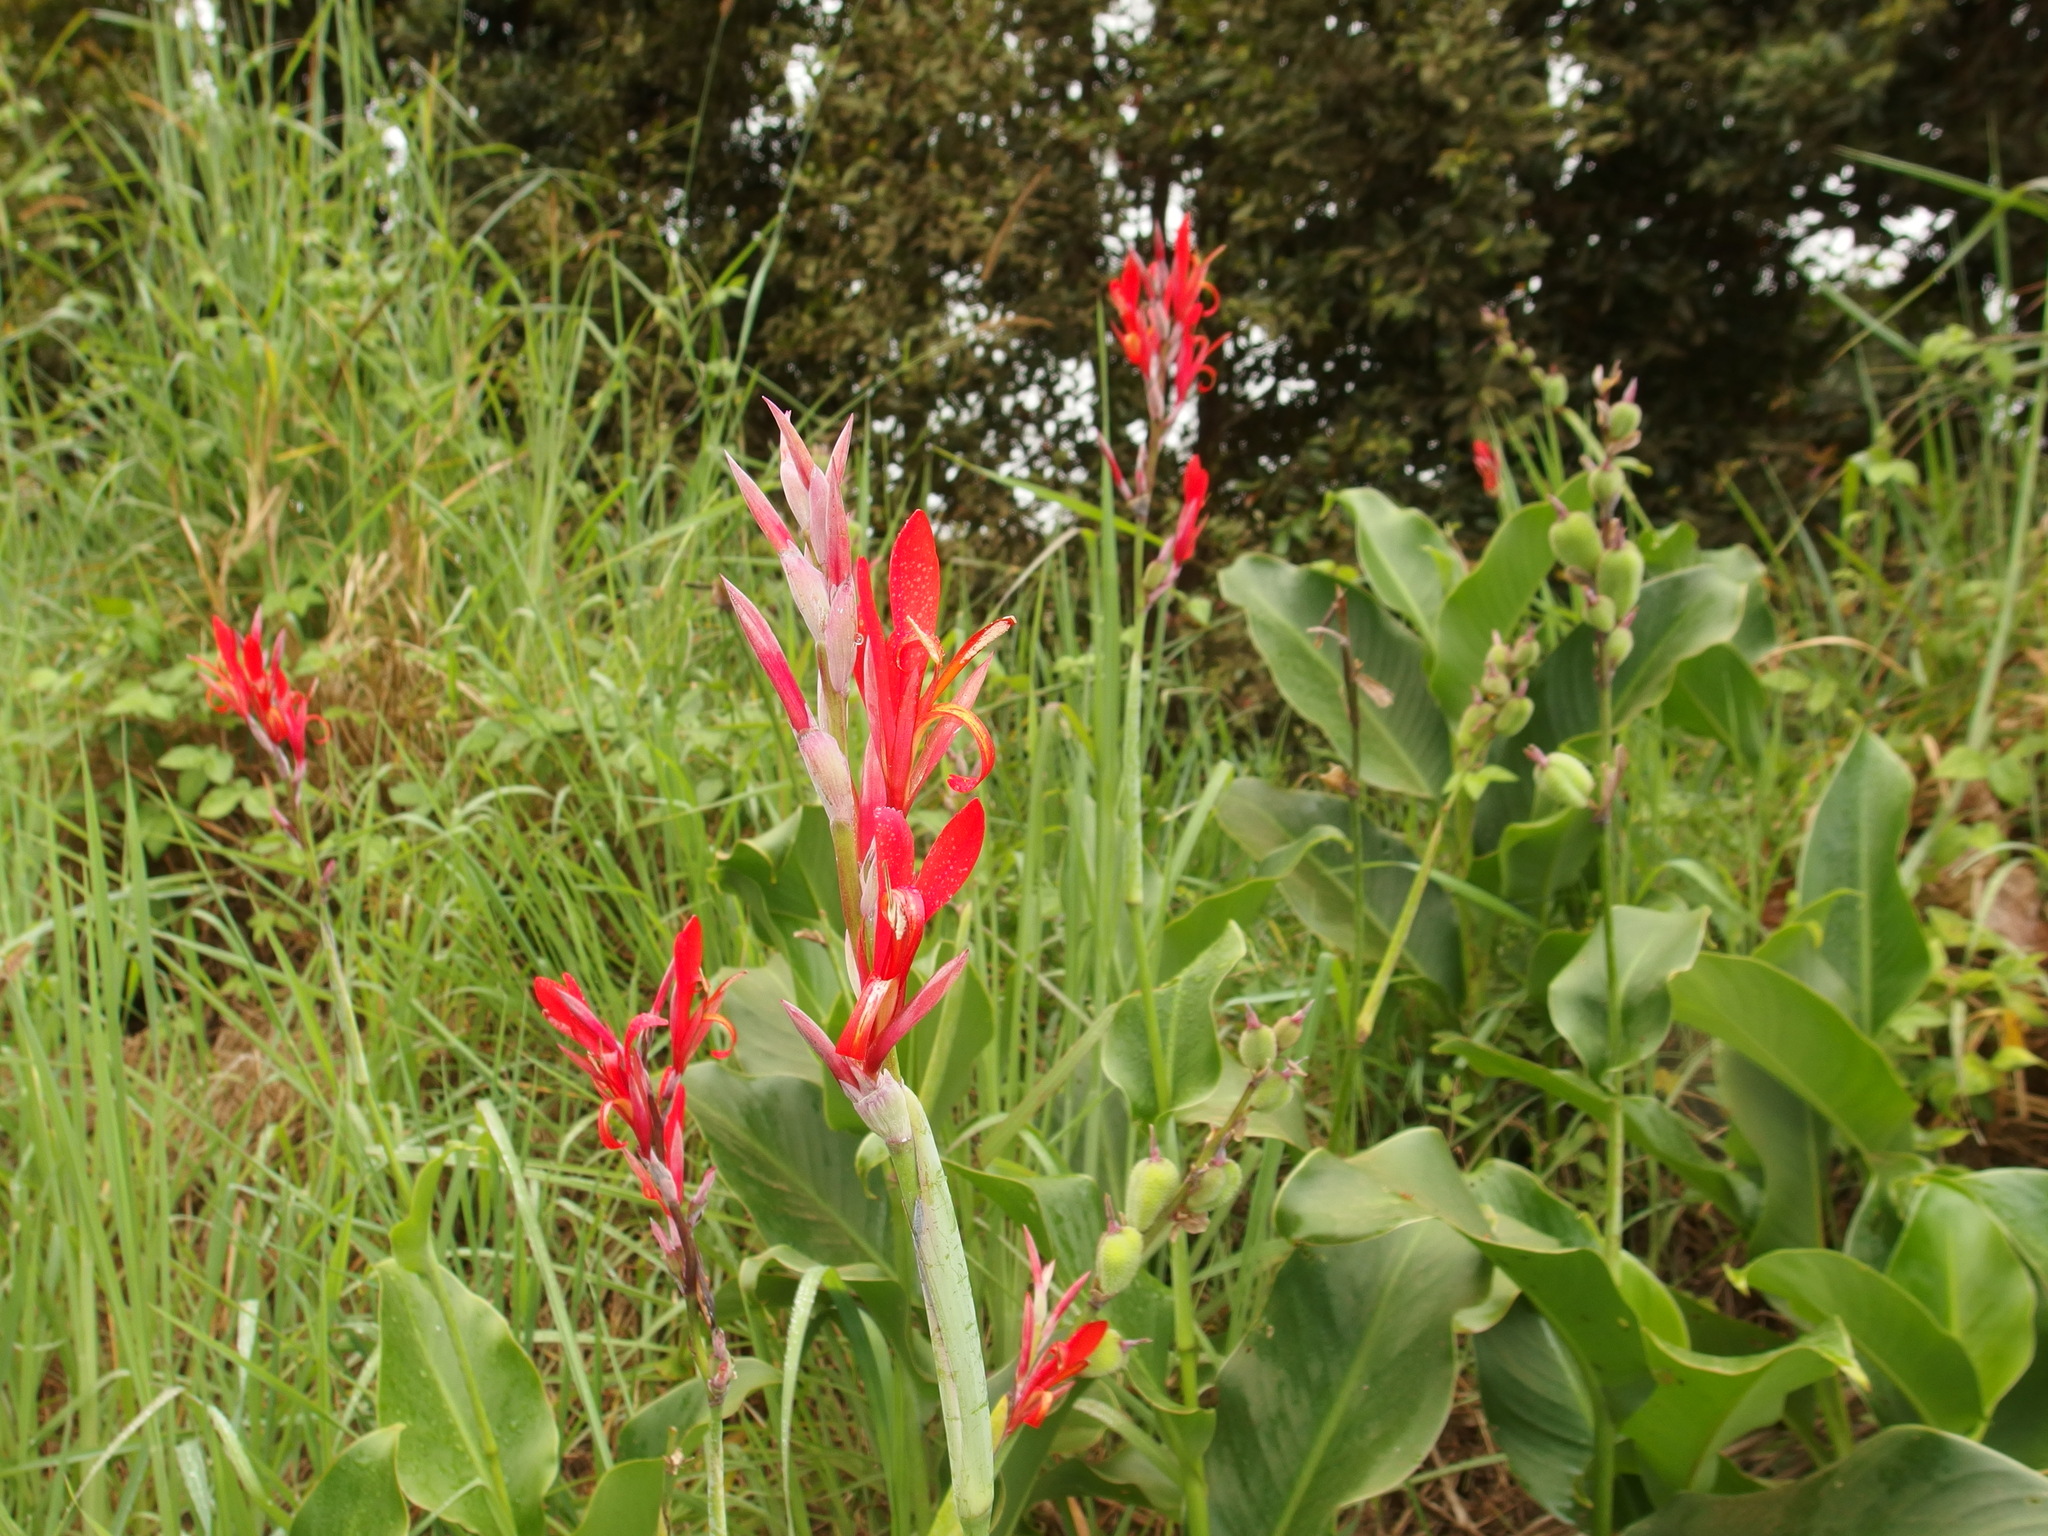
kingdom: Plantae
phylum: Tracheophyta
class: Liliopsida
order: Zingiberales
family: Cannaceae
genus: Canna
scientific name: Canna indica
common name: Indian shot
